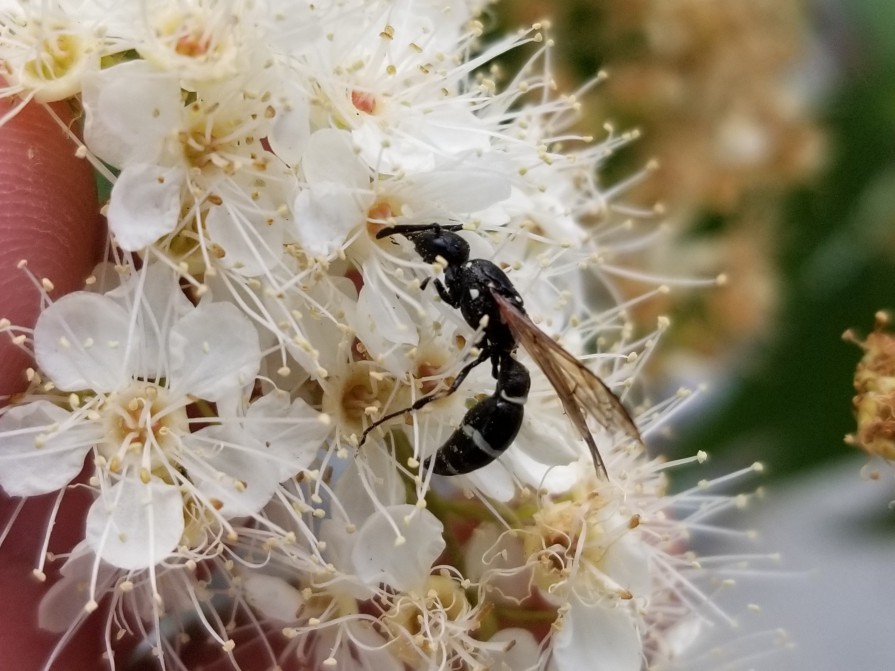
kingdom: Animalia
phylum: Arthropoda
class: Insecta
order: Hymenoptera
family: Eumenidae
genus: Symmorphus
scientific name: Symmorphus cristatus
